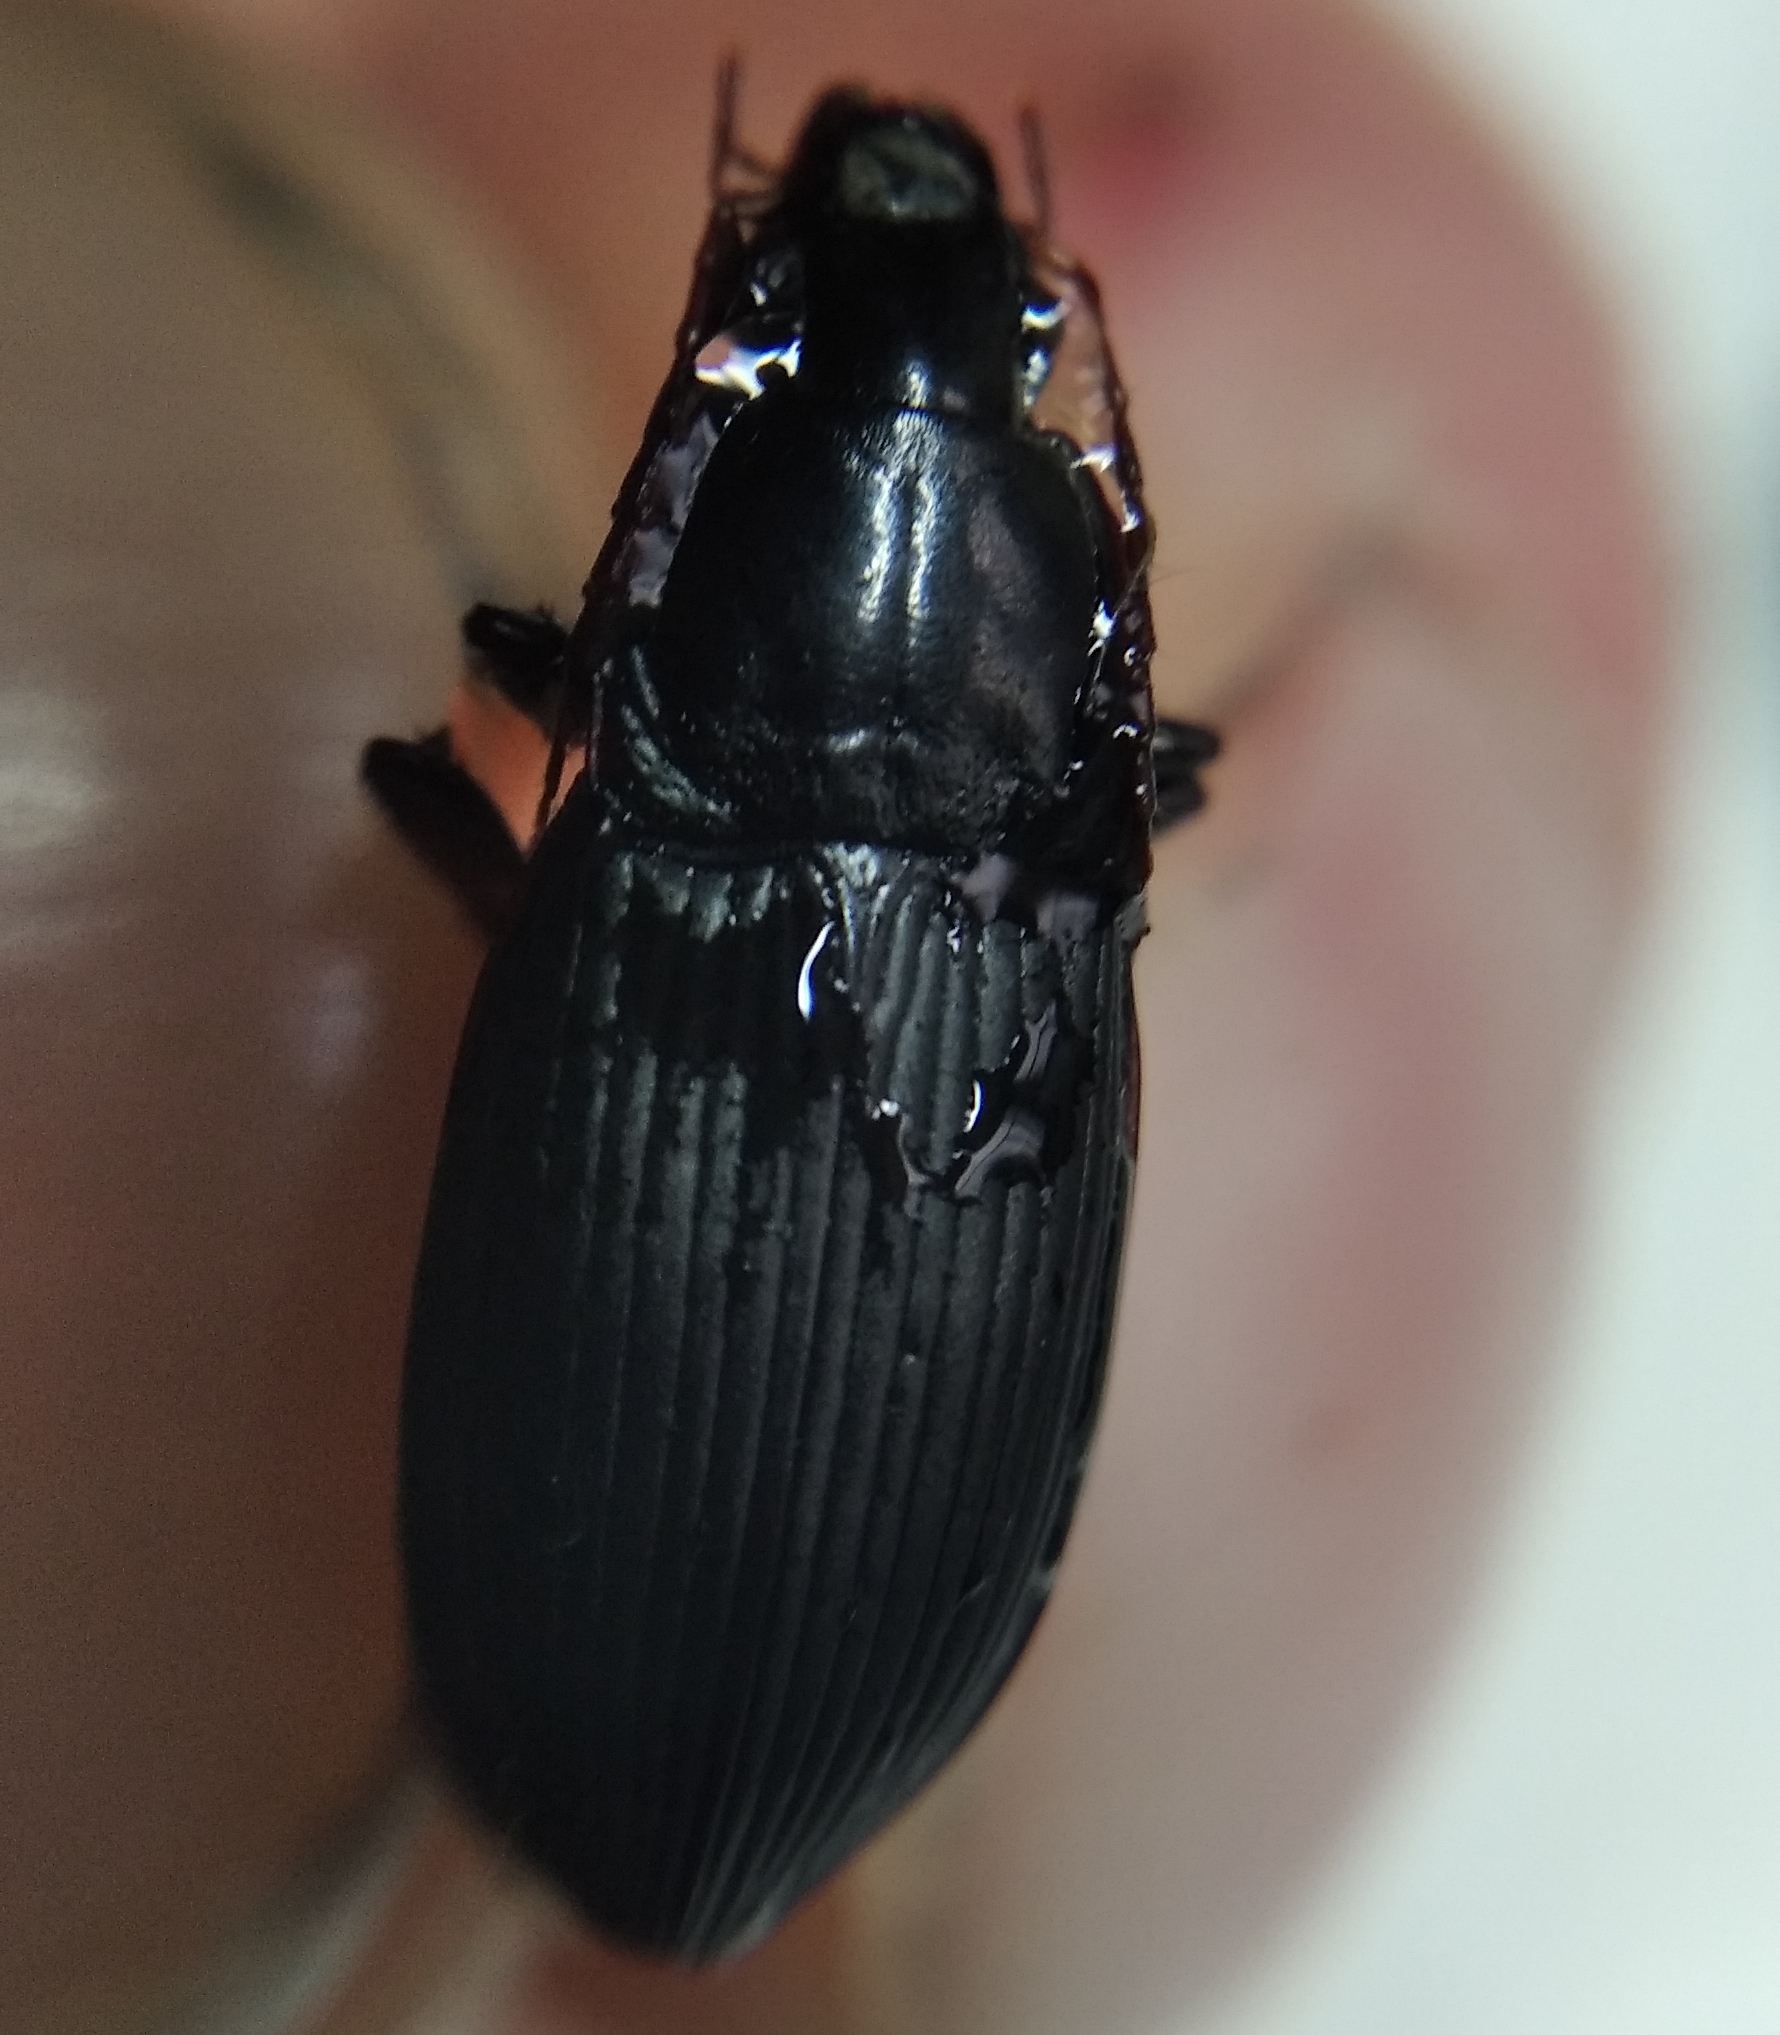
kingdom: Animalia
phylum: Arthropoda
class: Insecta
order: Coleoptera
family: Carabidae
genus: Calathus
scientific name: Calathus fuscipes
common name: Dark-footed harp ground beetle
